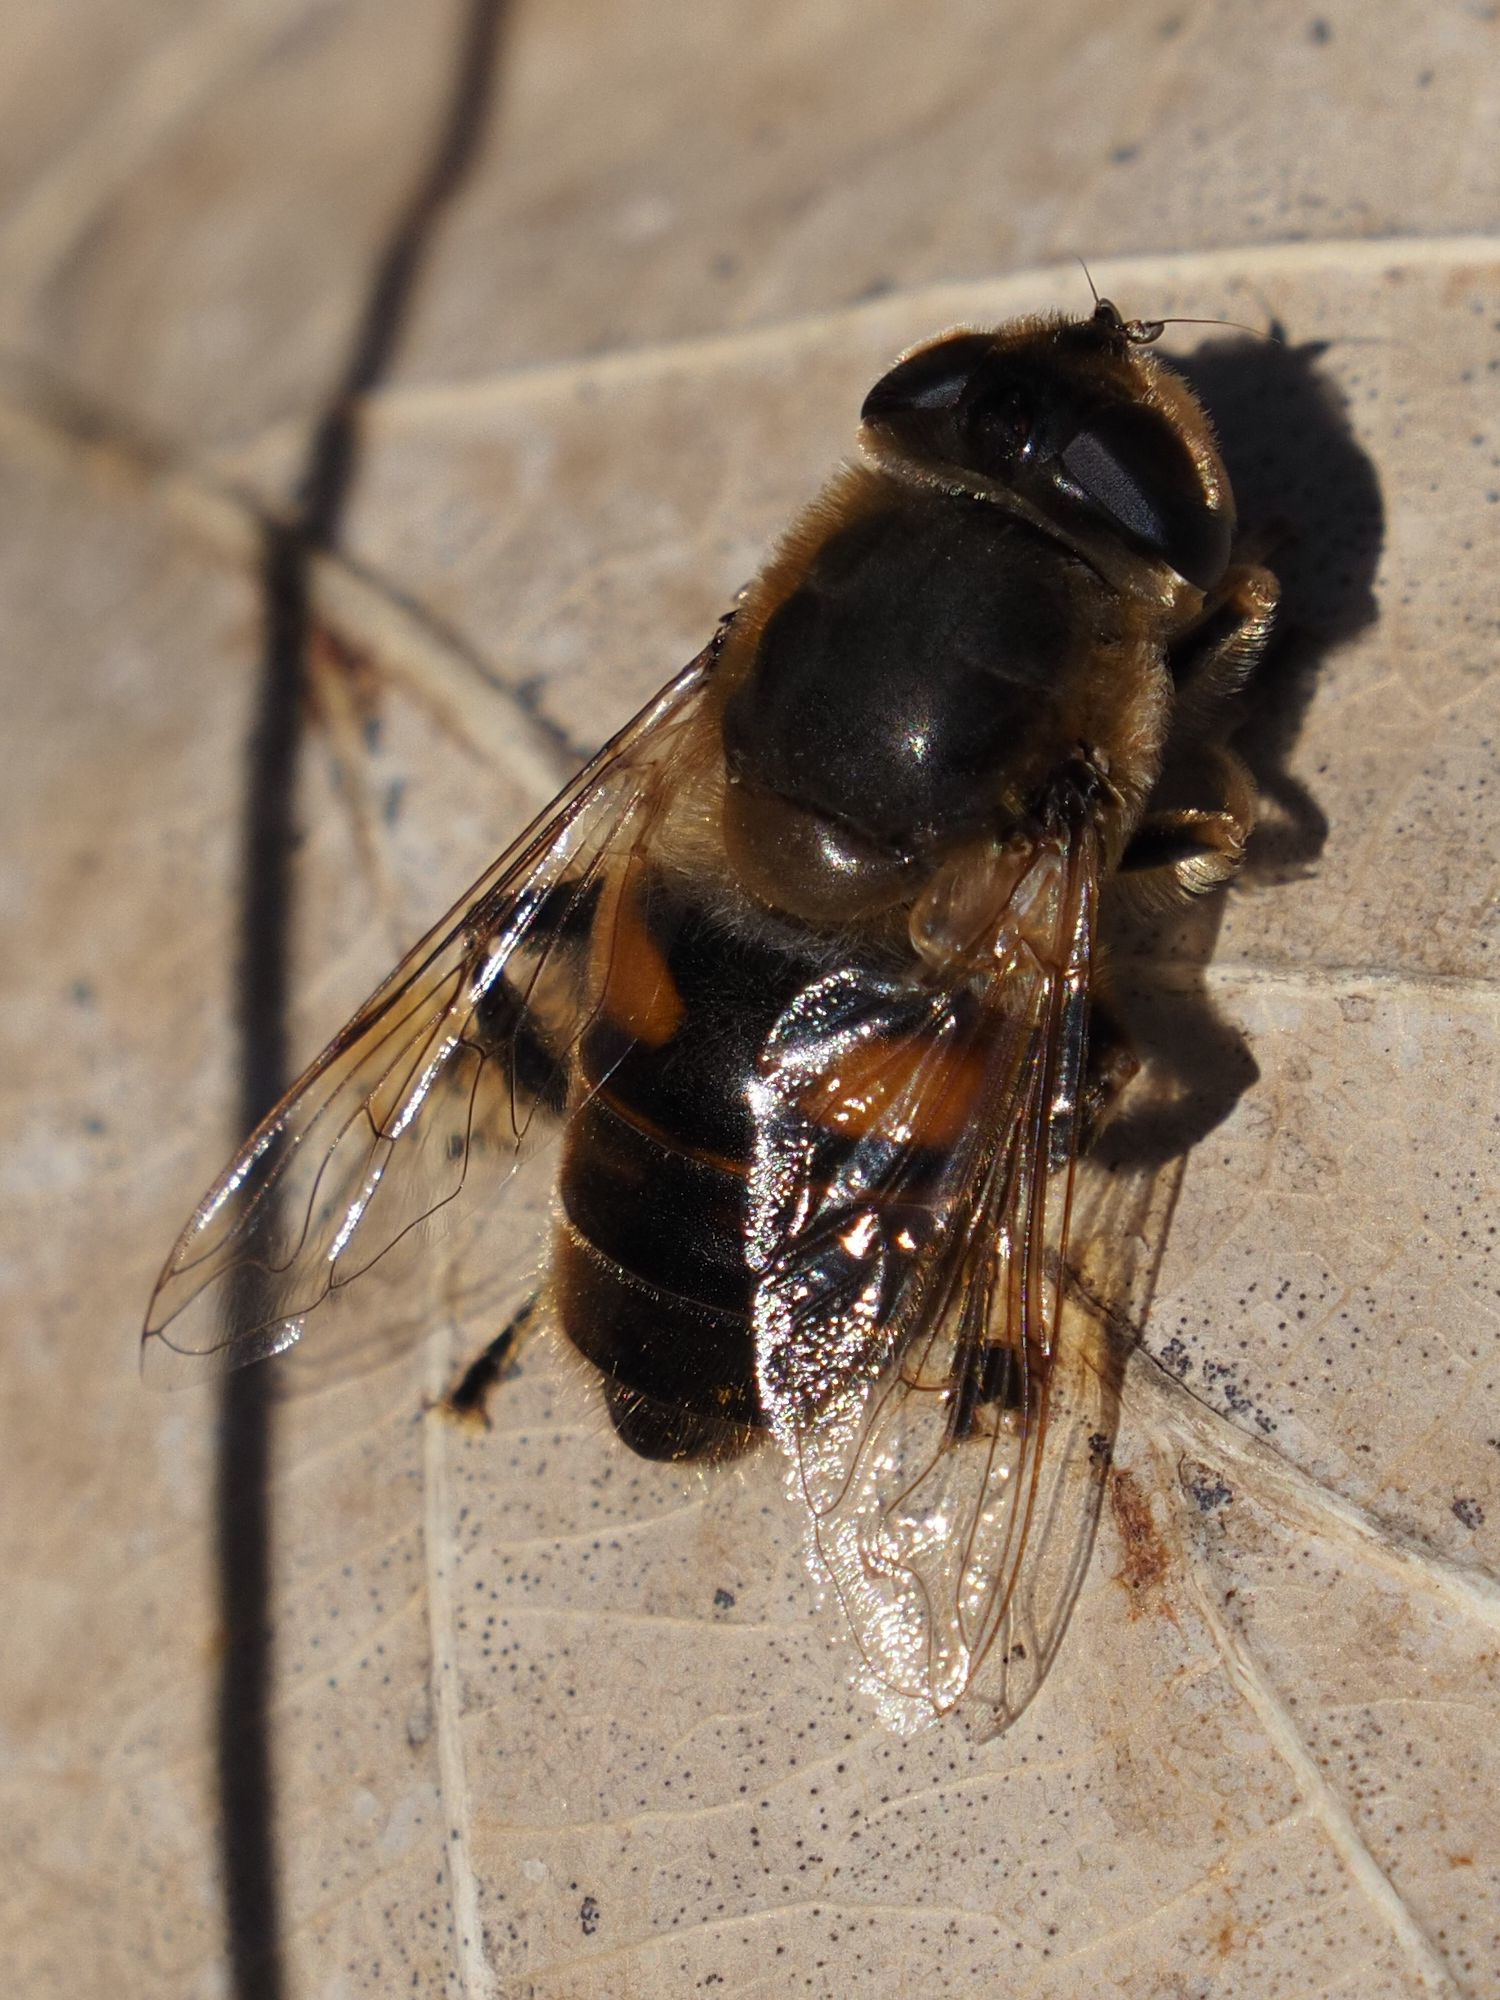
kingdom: Animalia
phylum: Arthropoda
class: Insecta
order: Diptera
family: Syrphidae
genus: Eristalis
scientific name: Eristalis tenax
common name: Drone fly
